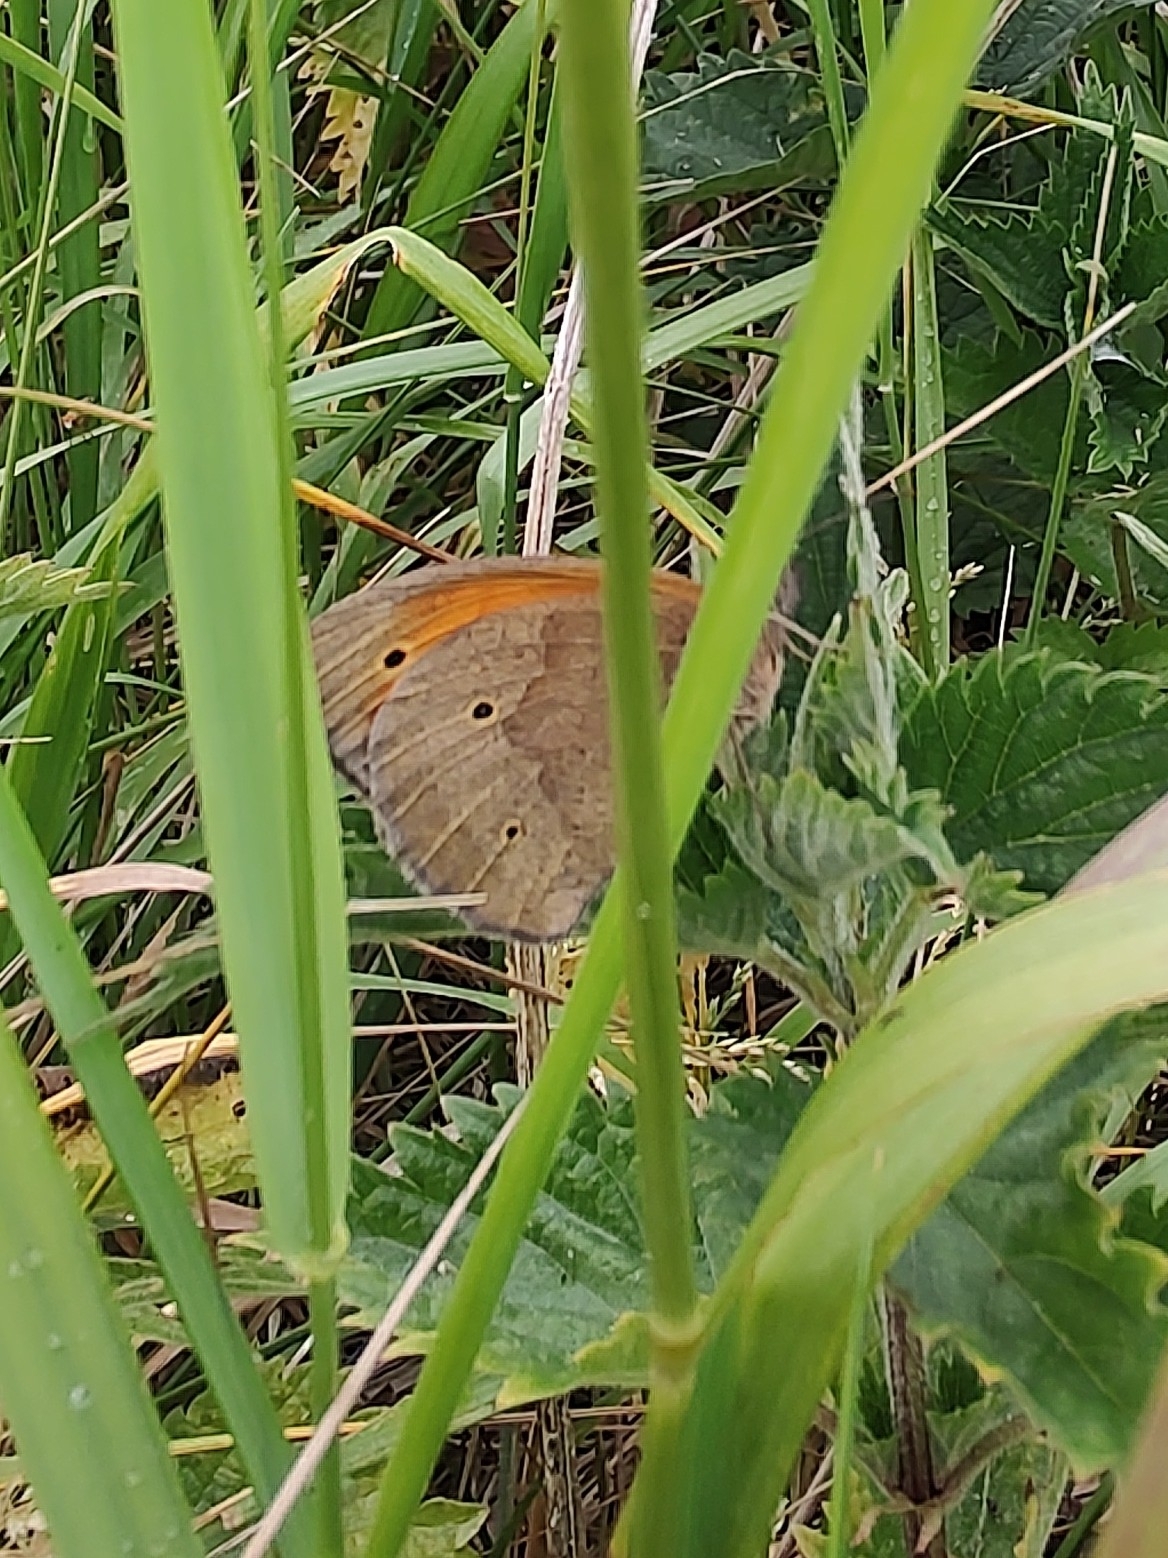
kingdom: Animalia
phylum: Arthropoda
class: Insecta
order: Lepidoptera
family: Nymphalidae
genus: Maniola
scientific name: Maniola jurtina
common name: Meadow brown
